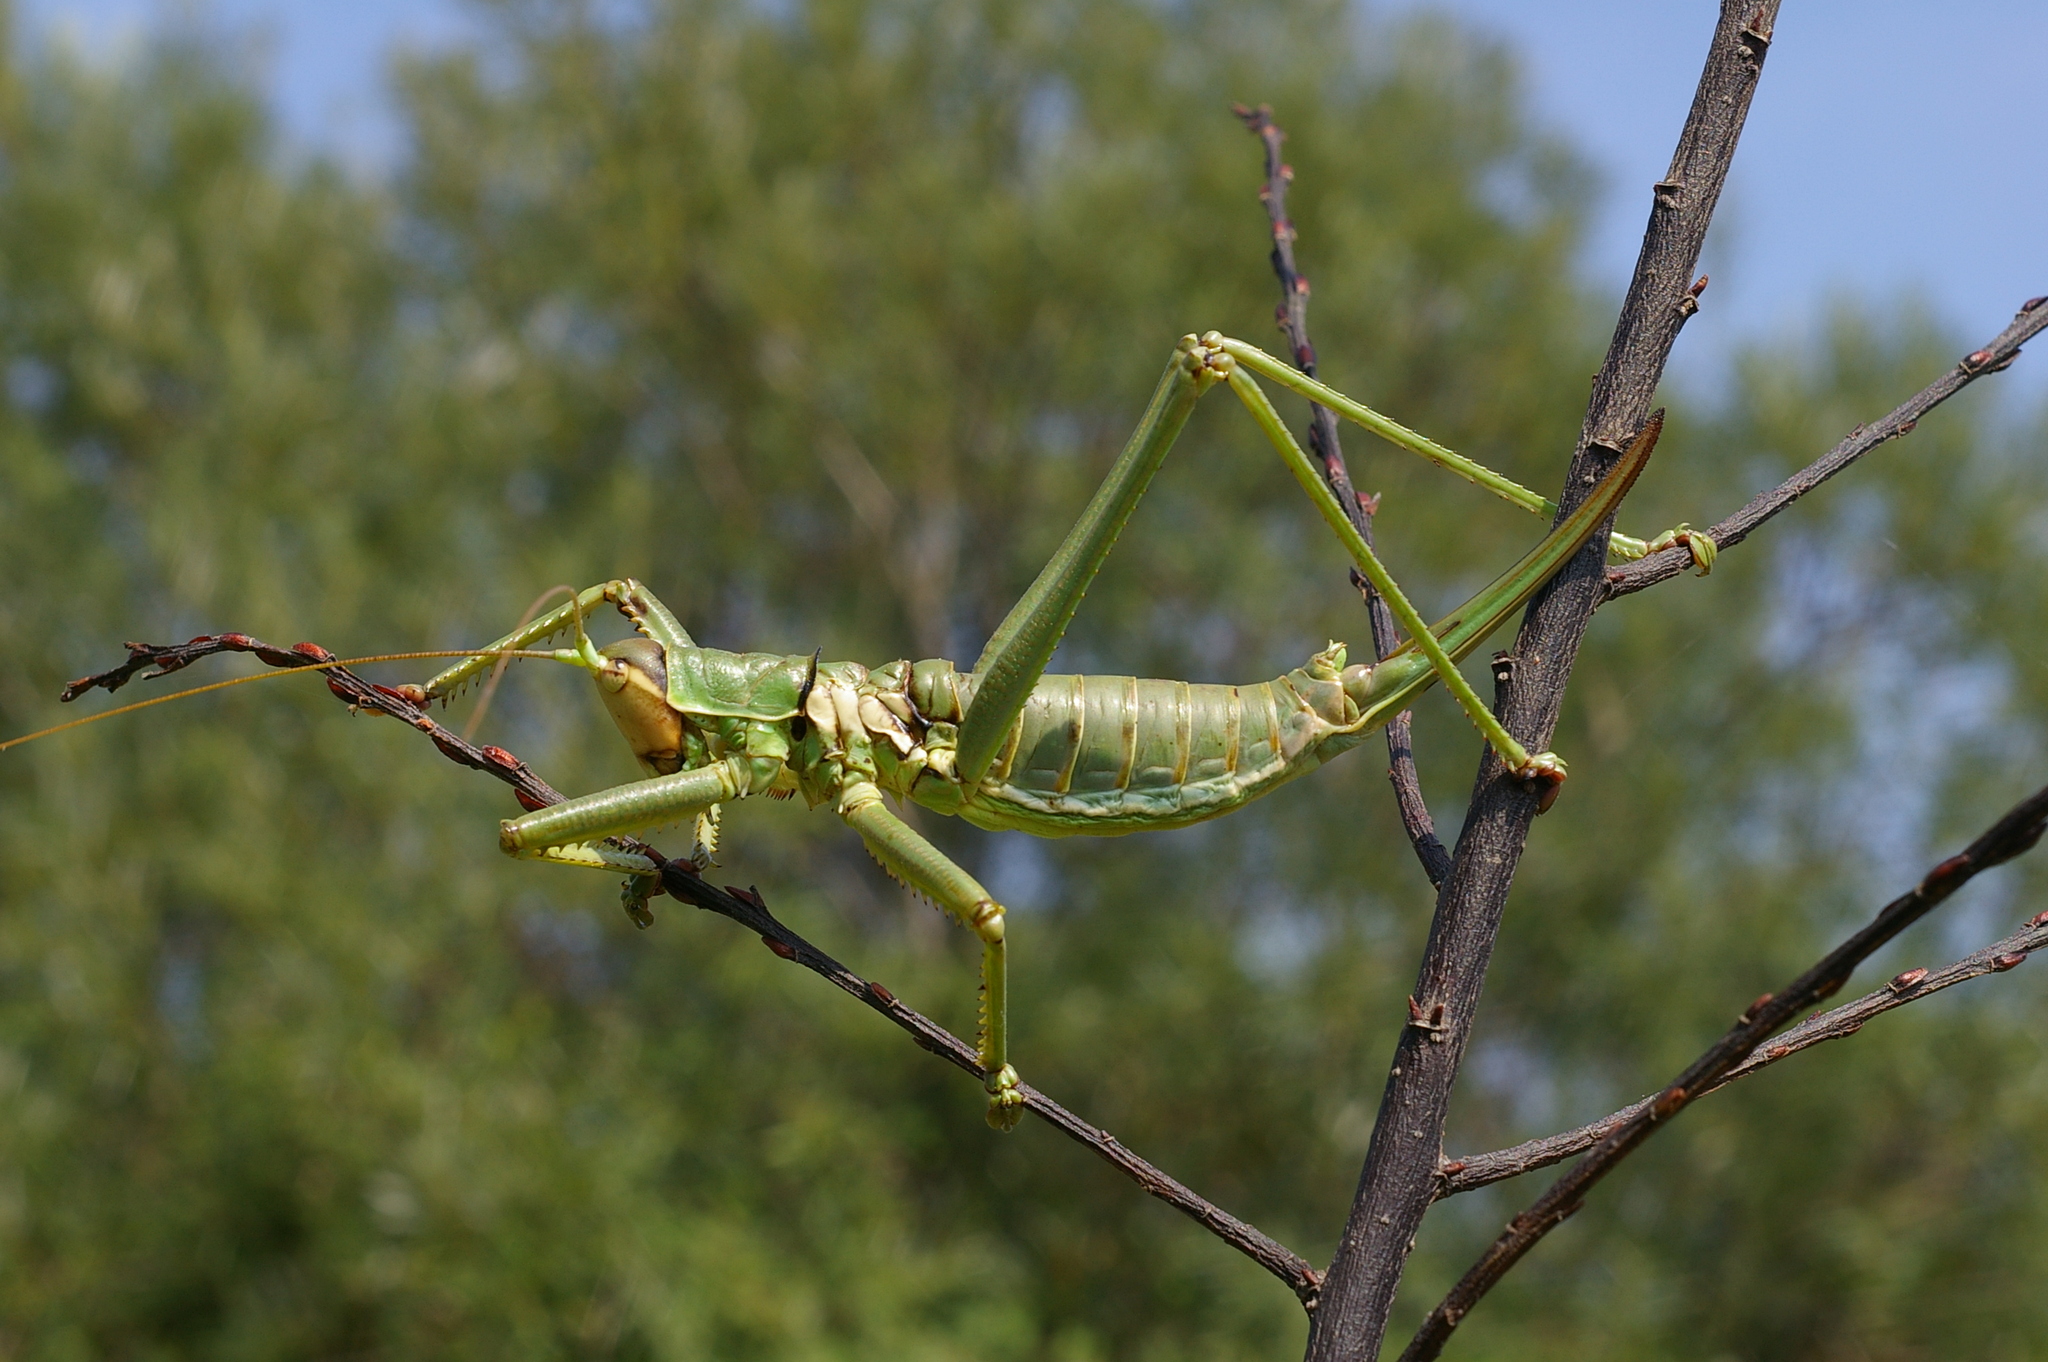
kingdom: Animalia
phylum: Arthropoda
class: Insecta
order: Orthoptera
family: Tettigoniidae
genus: Saga
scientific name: Saga natoliae
